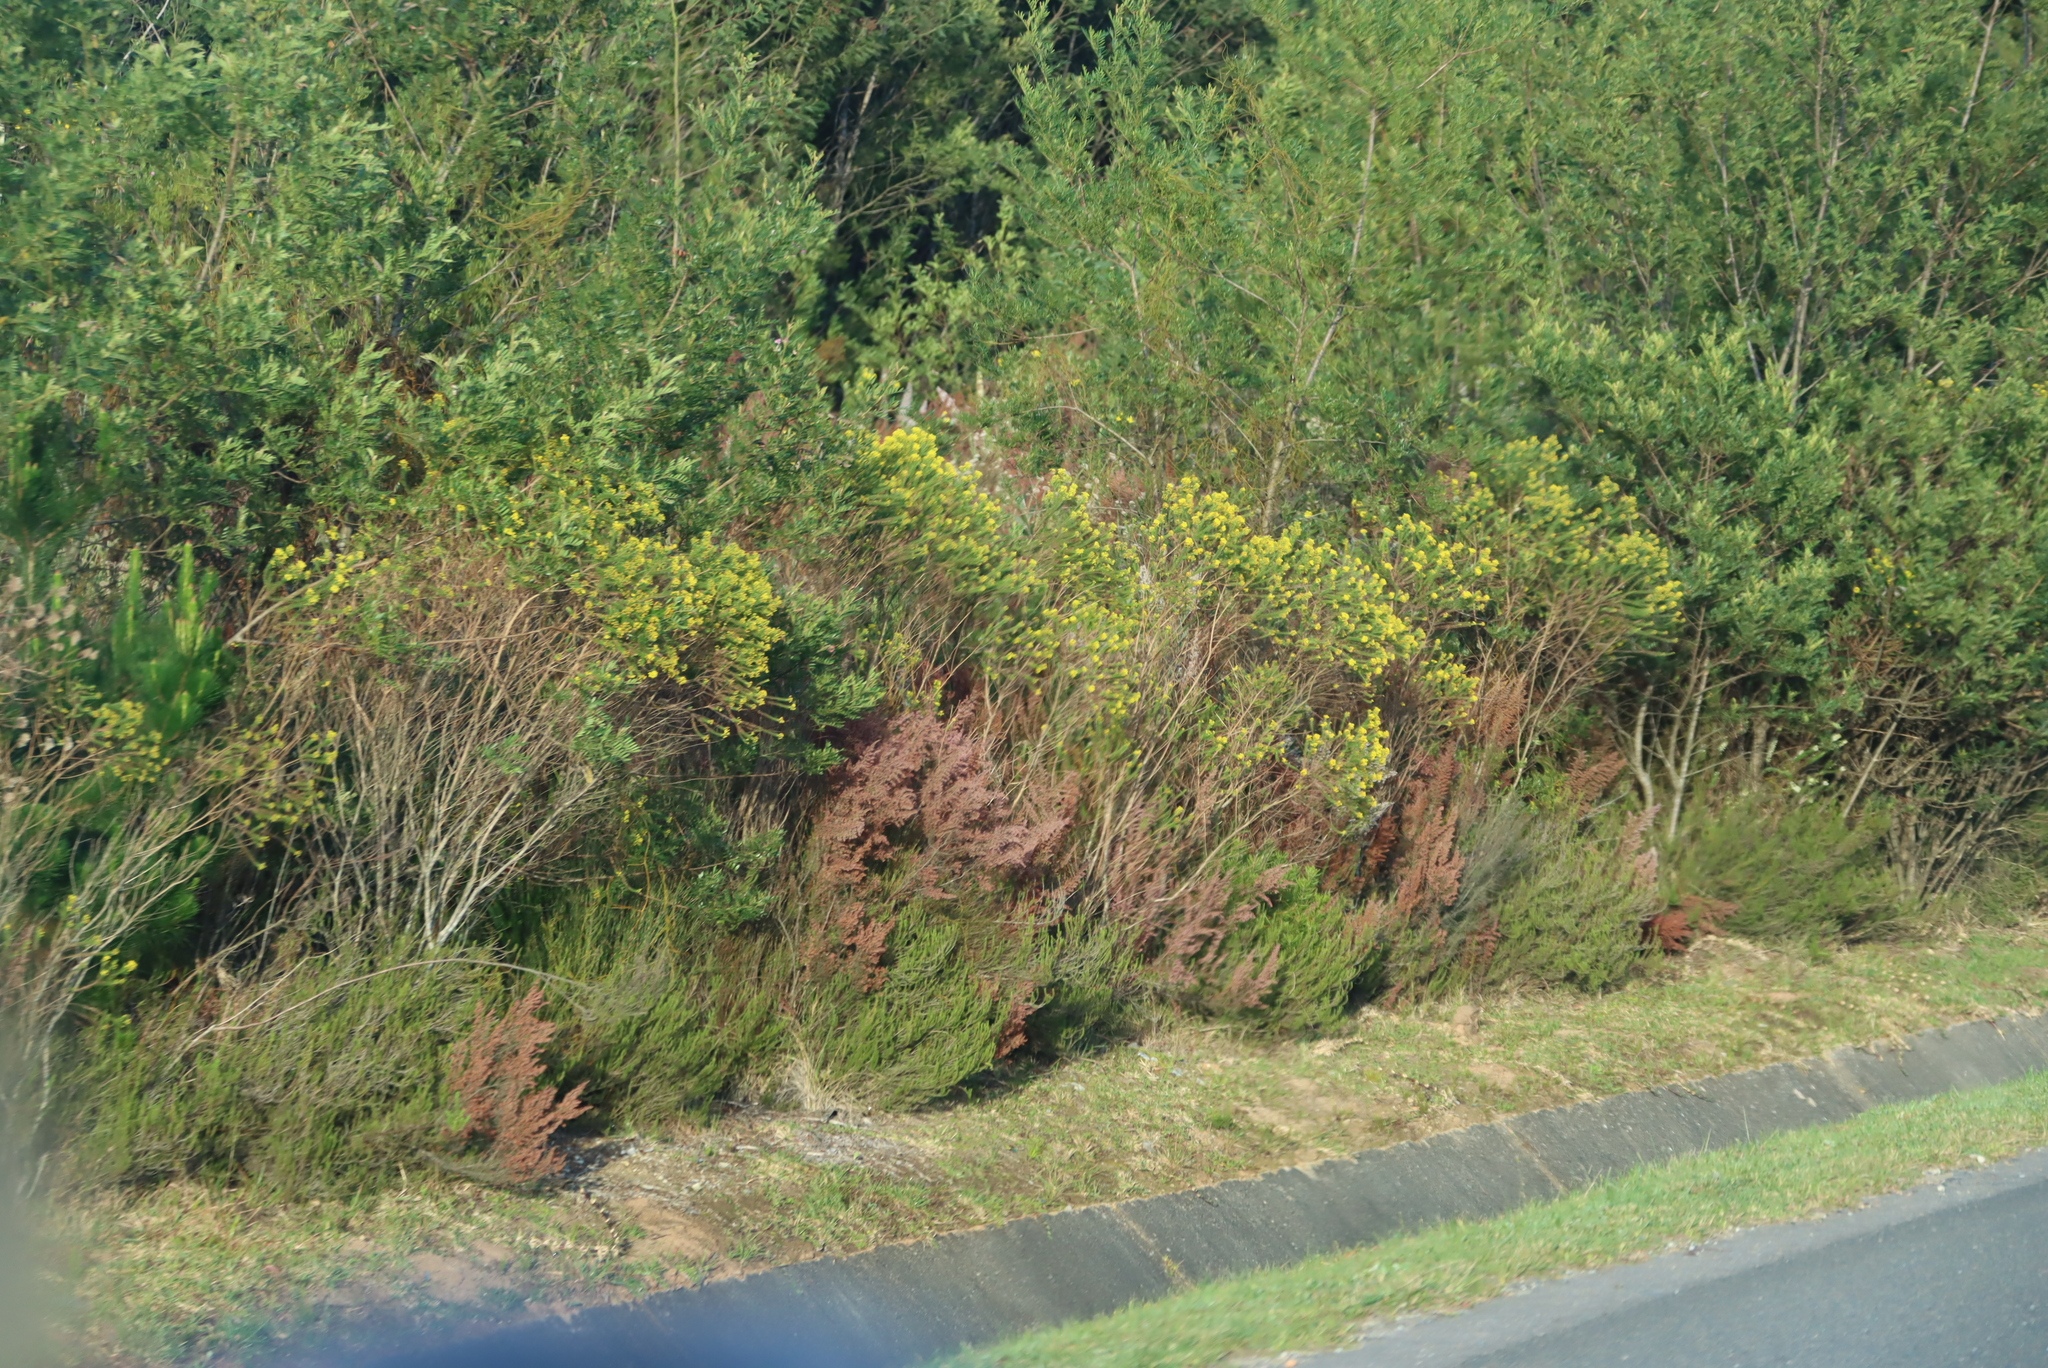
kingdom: Plantae
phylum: Tracheophyta
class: Magnoliopsida
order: Asterales
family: Asteraceae
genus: Euryops
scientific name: Euryops virgineus
